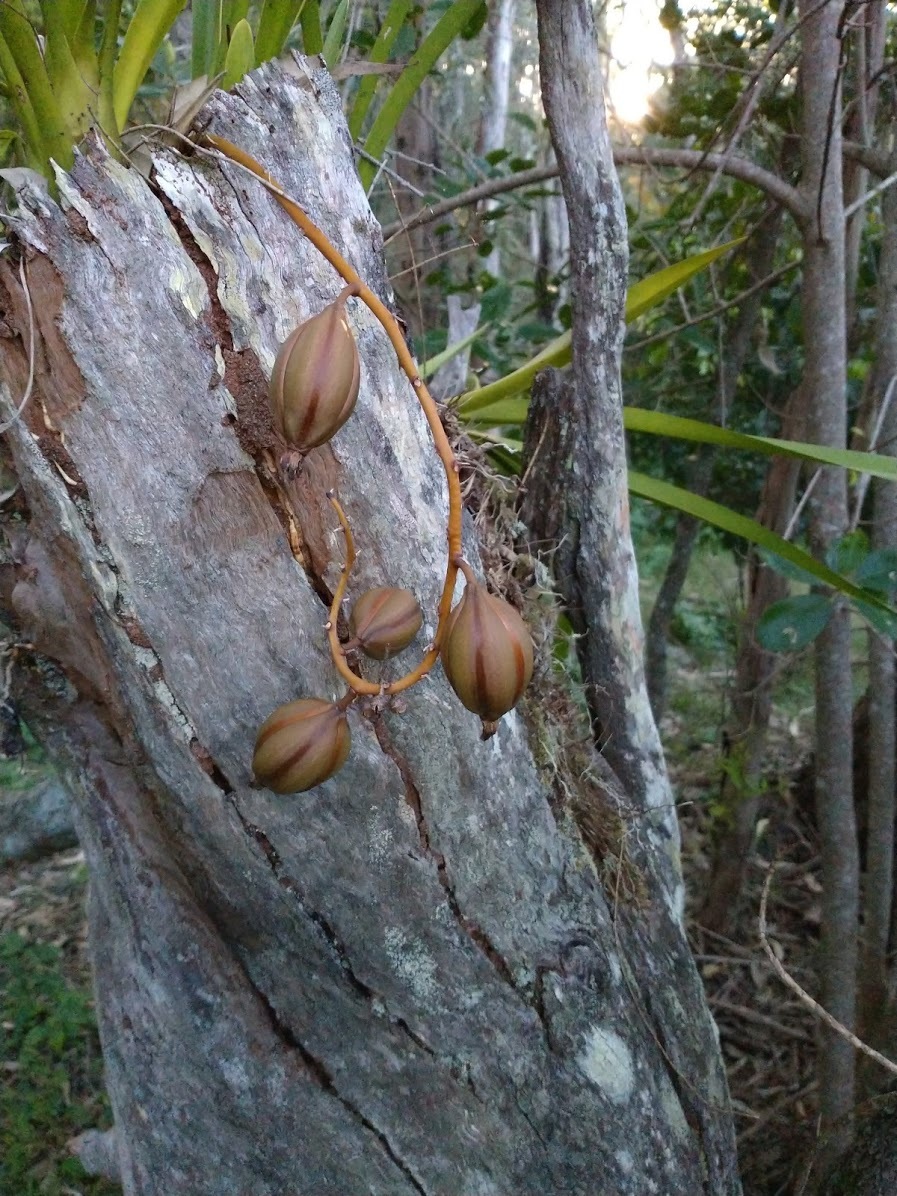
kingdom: Plantae
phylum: Tracheophyta
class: Liliopsida
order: Asparagales
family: Orchidaceae
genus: Cymbidium
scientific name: Cymbidium madidum
